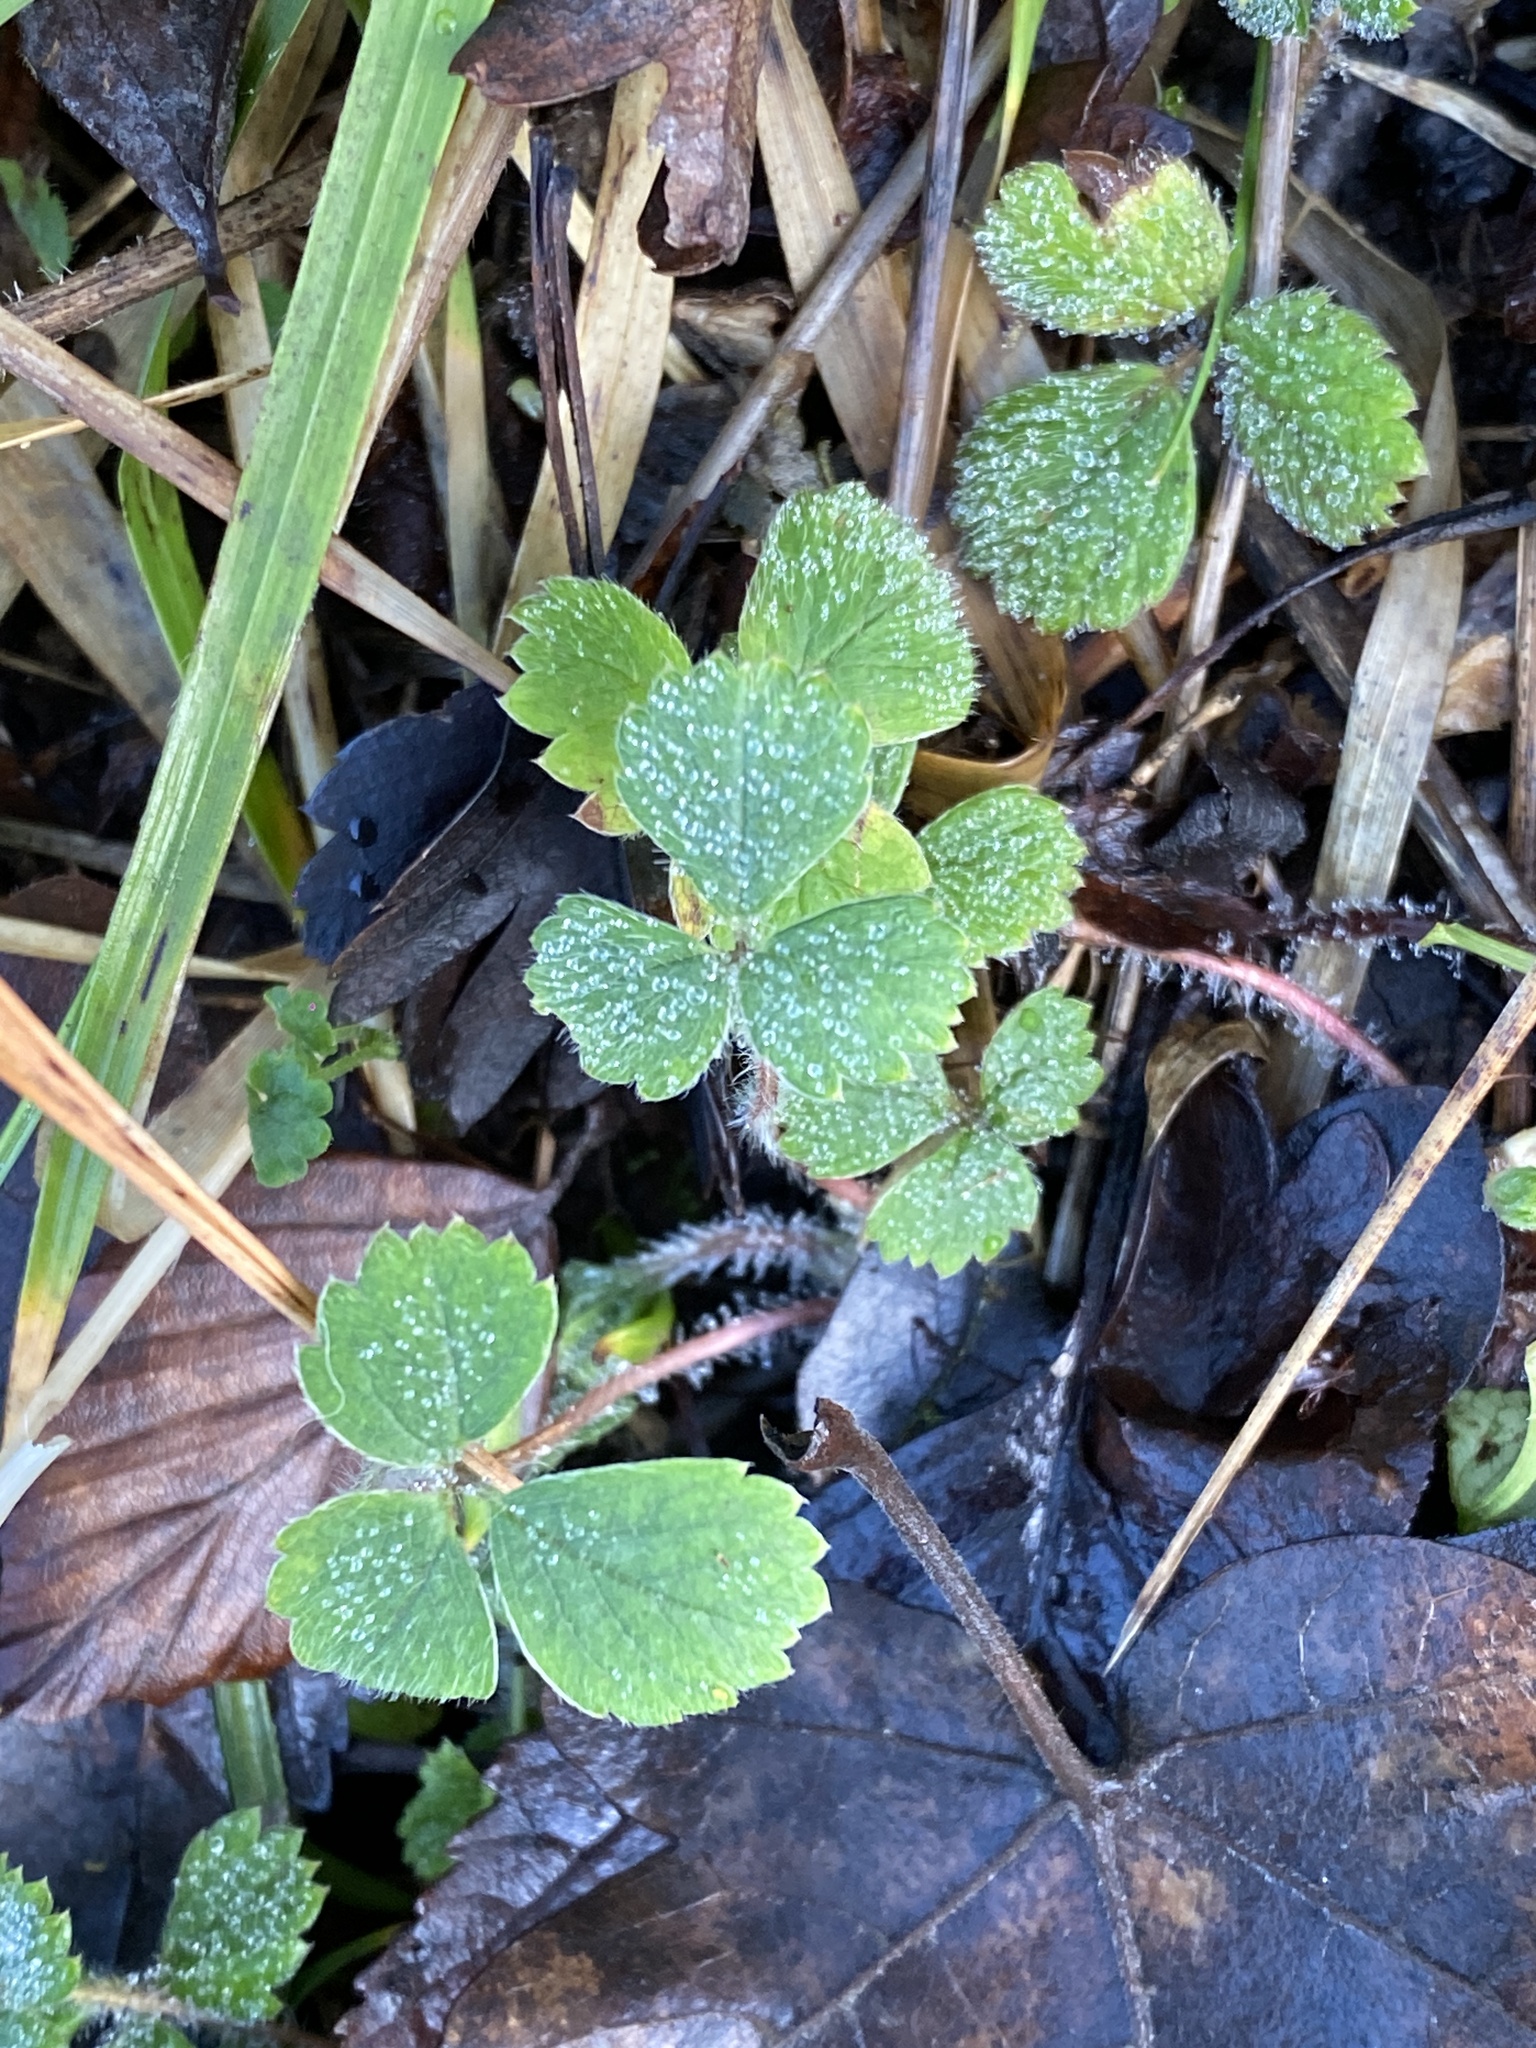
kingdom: Plantae
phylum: Tracheophyta
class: Magnoliopsida
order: Rosales
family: Rosaceae
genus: Potentilla
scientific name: Potentilla sterilis
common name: Barren strawberry
